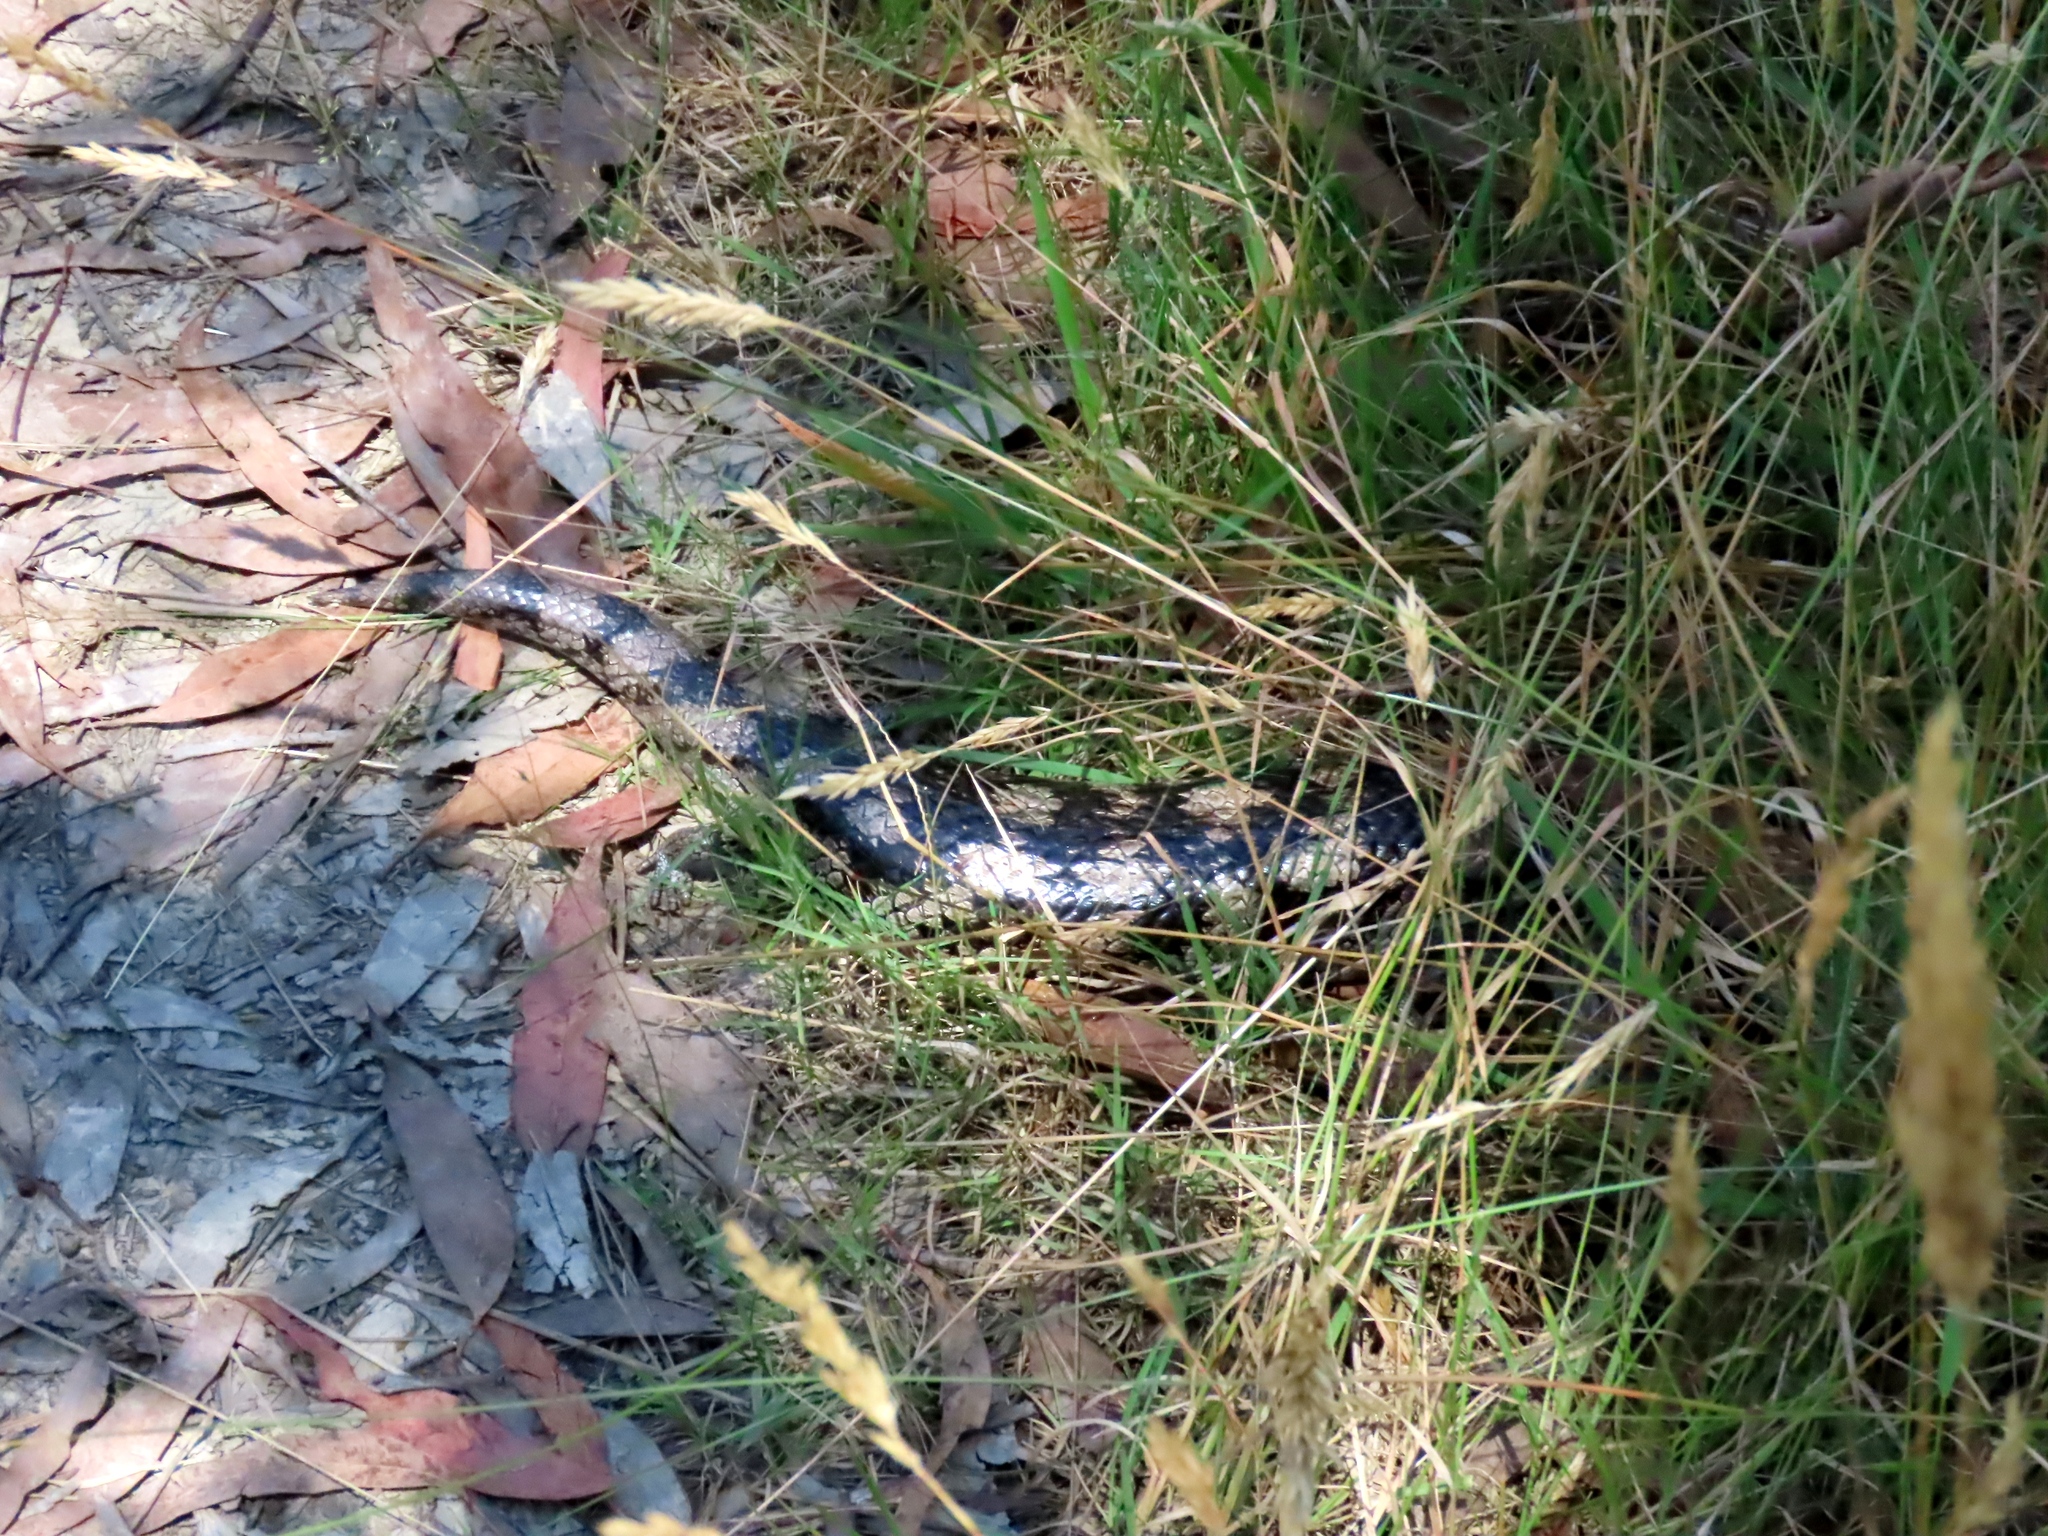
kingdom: Animalia
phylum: Chordata
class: Squamata
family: Scincidae
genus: Tiliqua
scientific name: Tiliqua nigrolutea
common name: Blotched blue-tongued lizard
